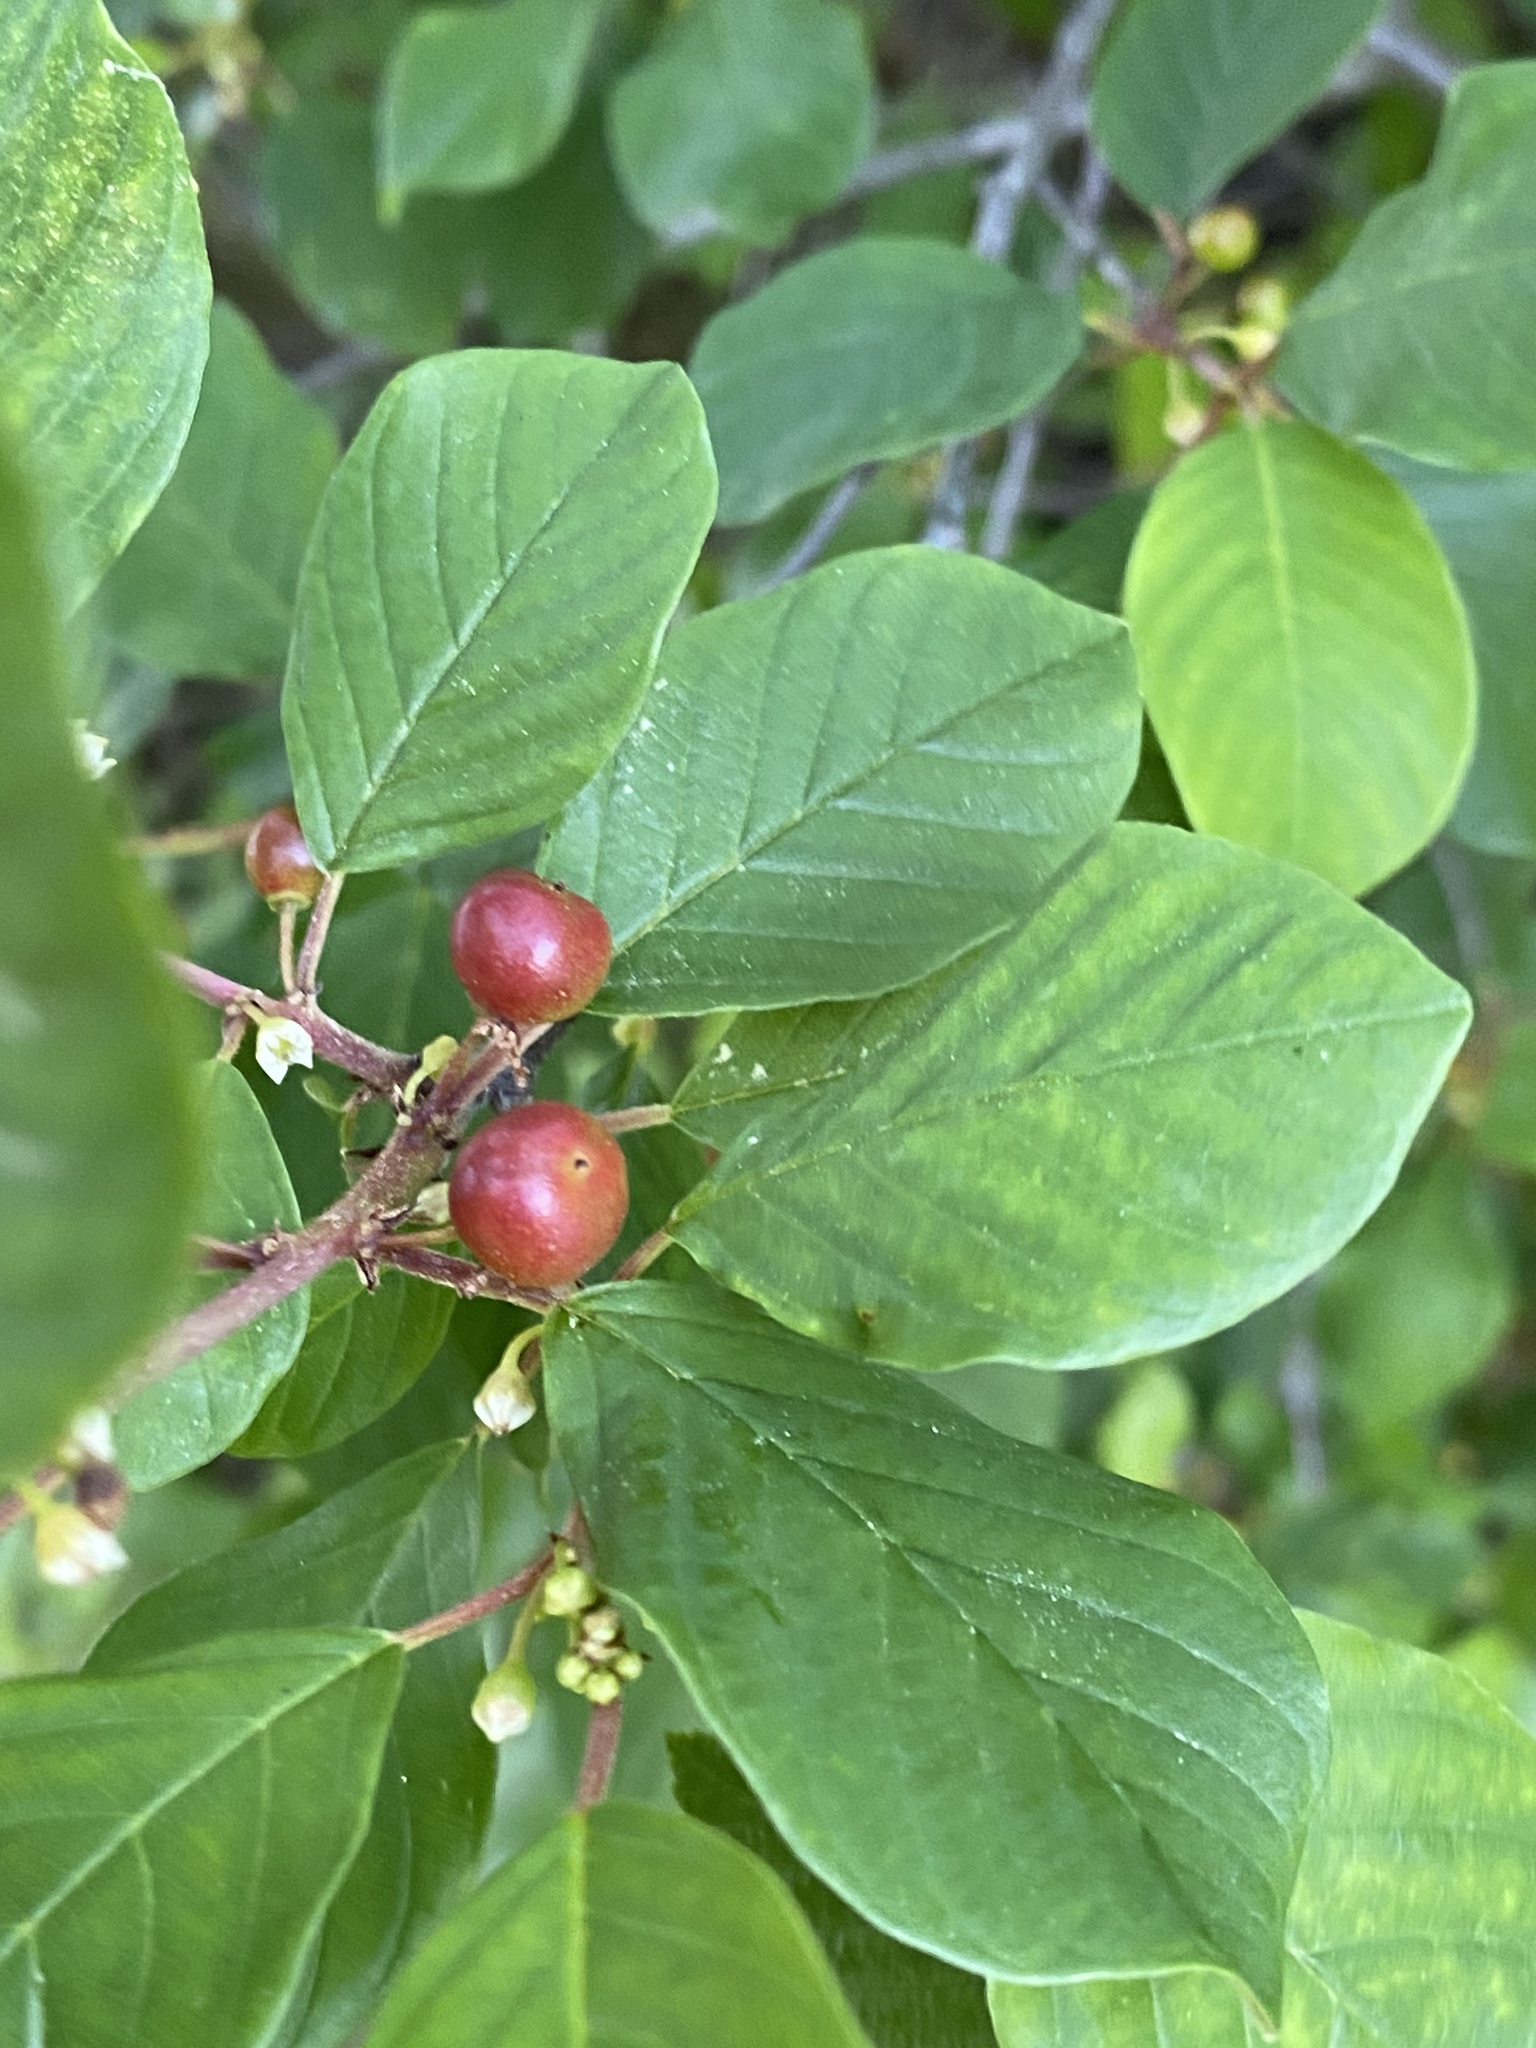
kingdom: Plantae
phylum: Tracheophyta
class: Magnoliopsida
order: Rosales
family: Rhamnaceae
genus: Frangula
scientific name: Frangula alnus
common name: Alder buckthorn
